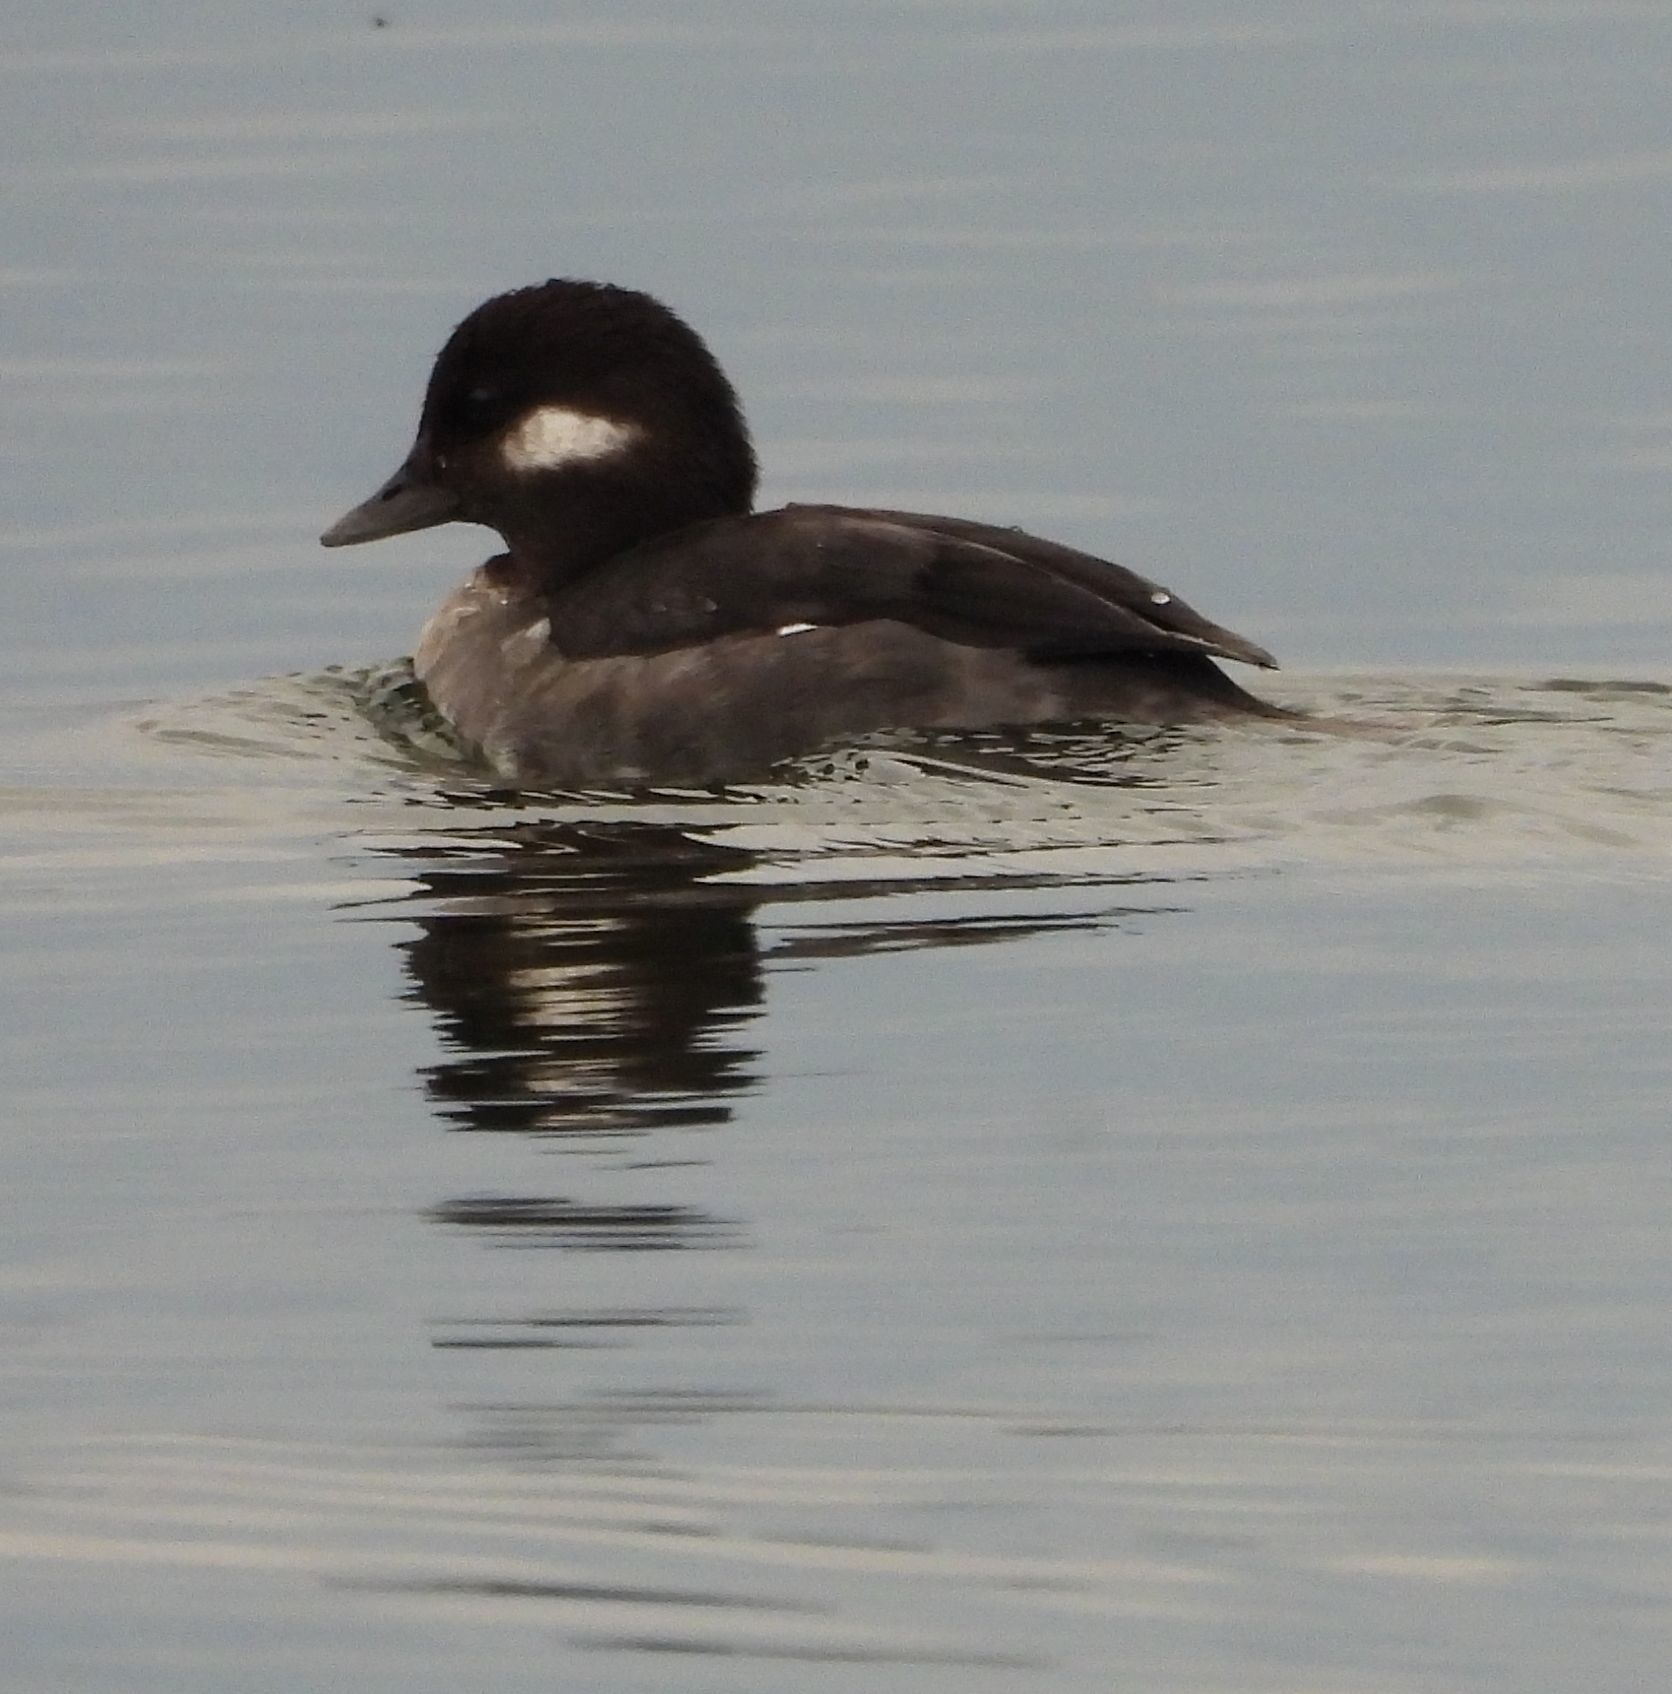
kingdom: Animalia
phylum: Chordata
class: Aves
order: Anseriformes
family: Anatidae
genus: Bucephala
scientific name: Bucephala albeola
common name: Bufflehead
